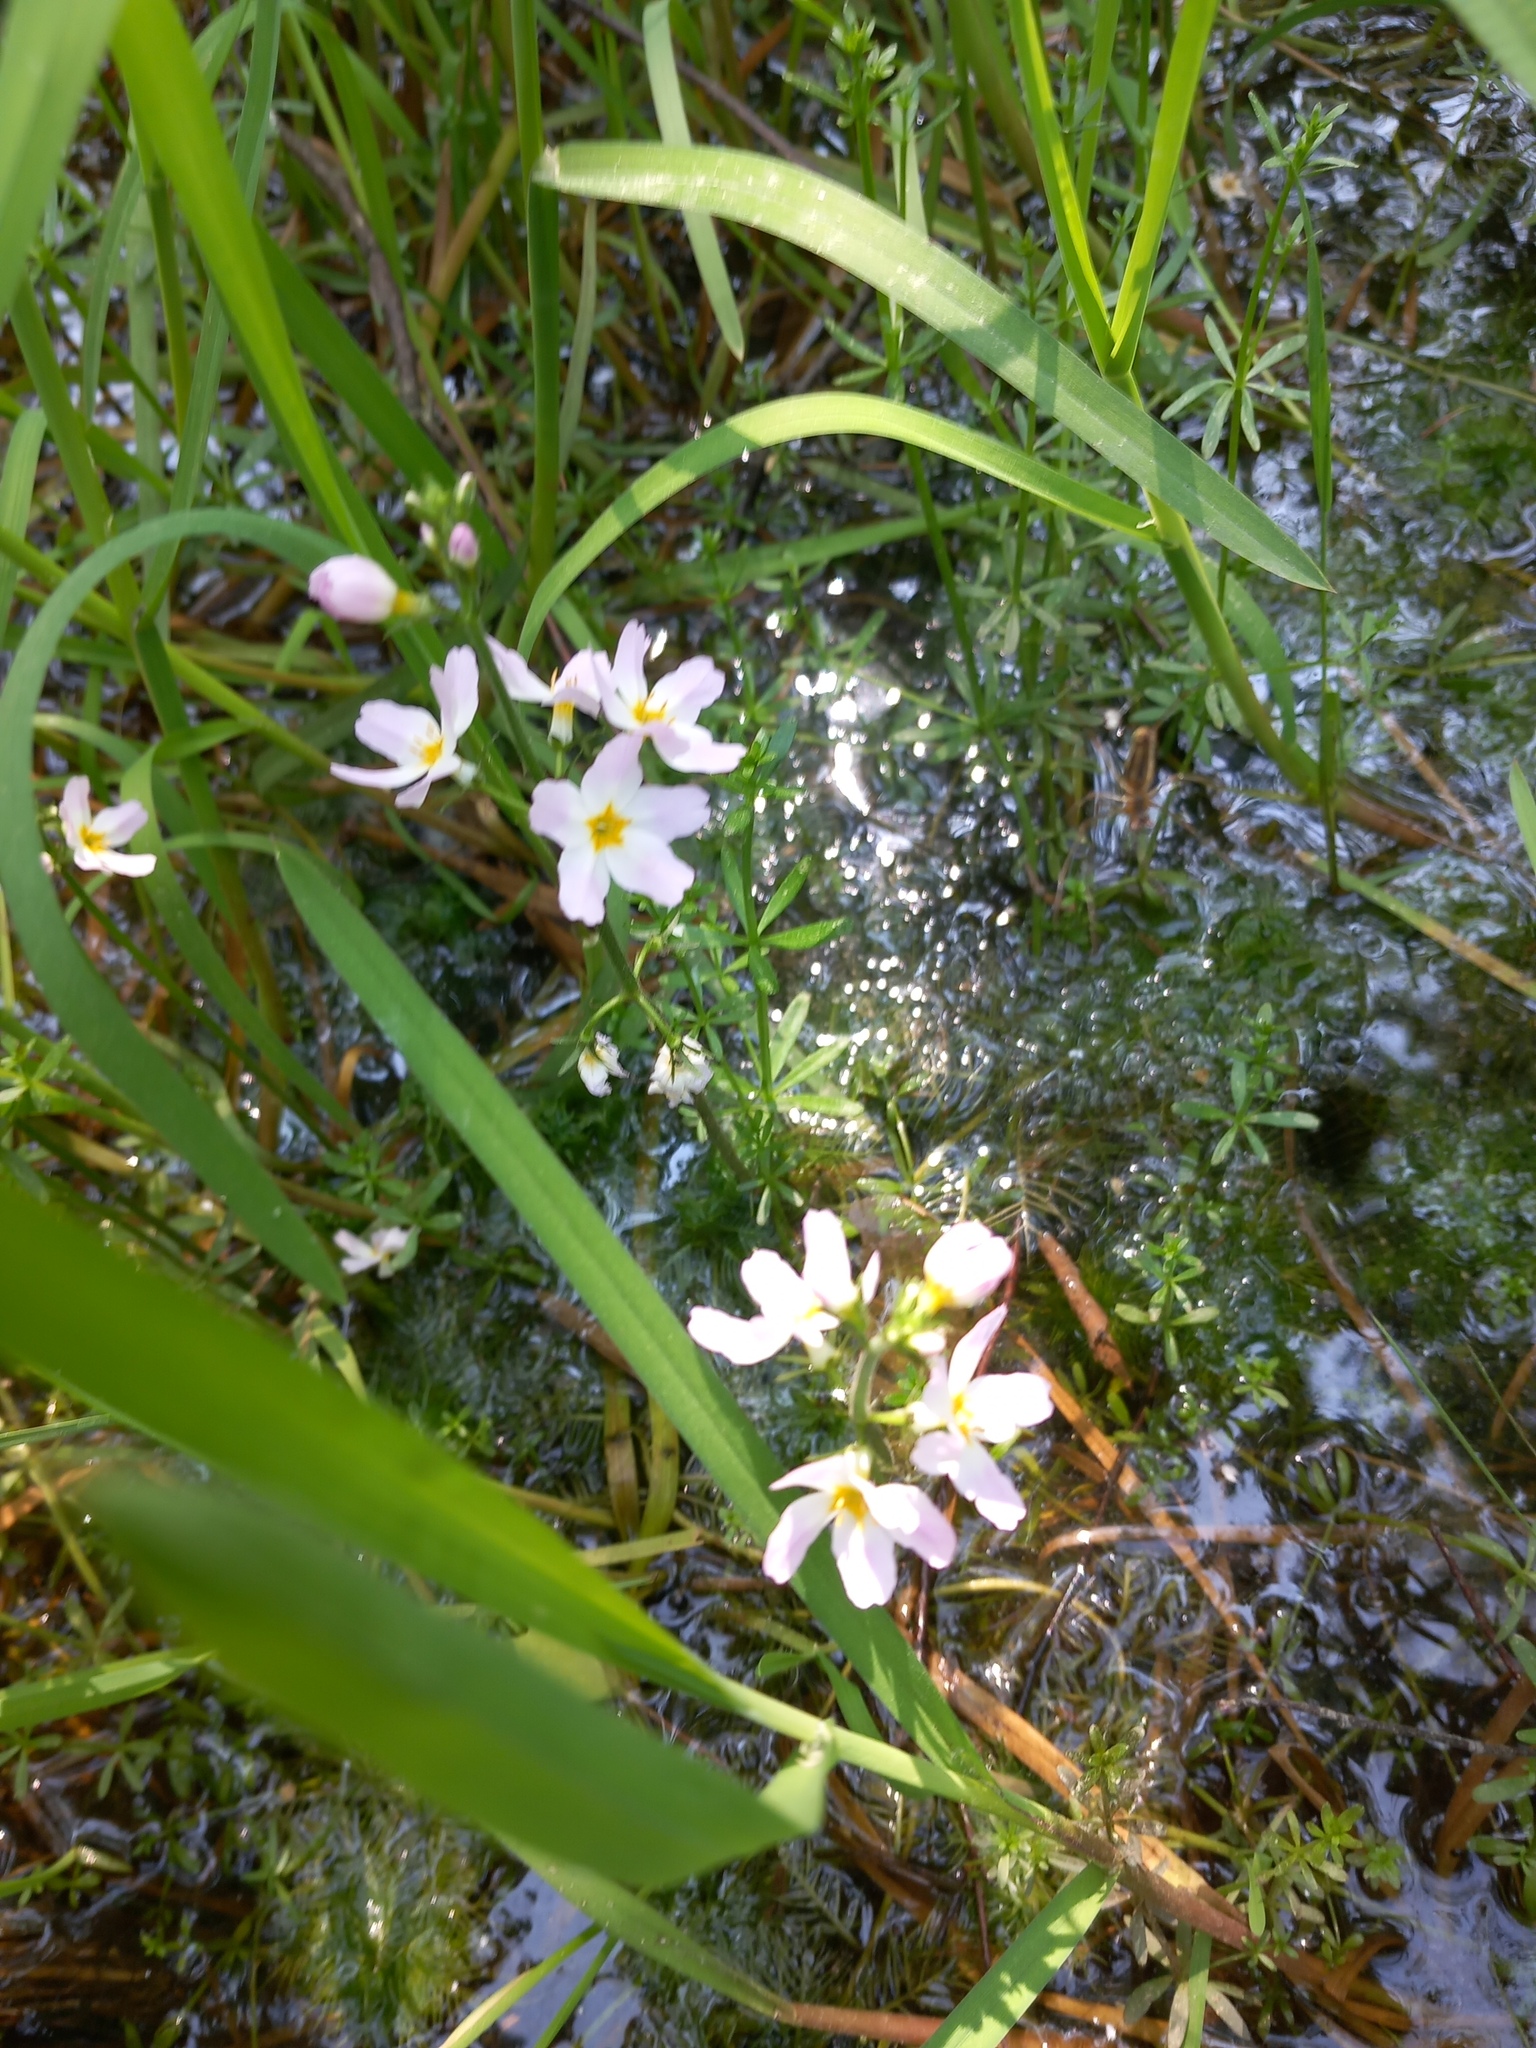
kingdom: Plantae
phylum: Tracheophyta
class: Magnoliopsida
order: Ericales
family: Primulaceae
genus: Hottonia
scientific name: Hottonia palustris
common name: Water-violet
